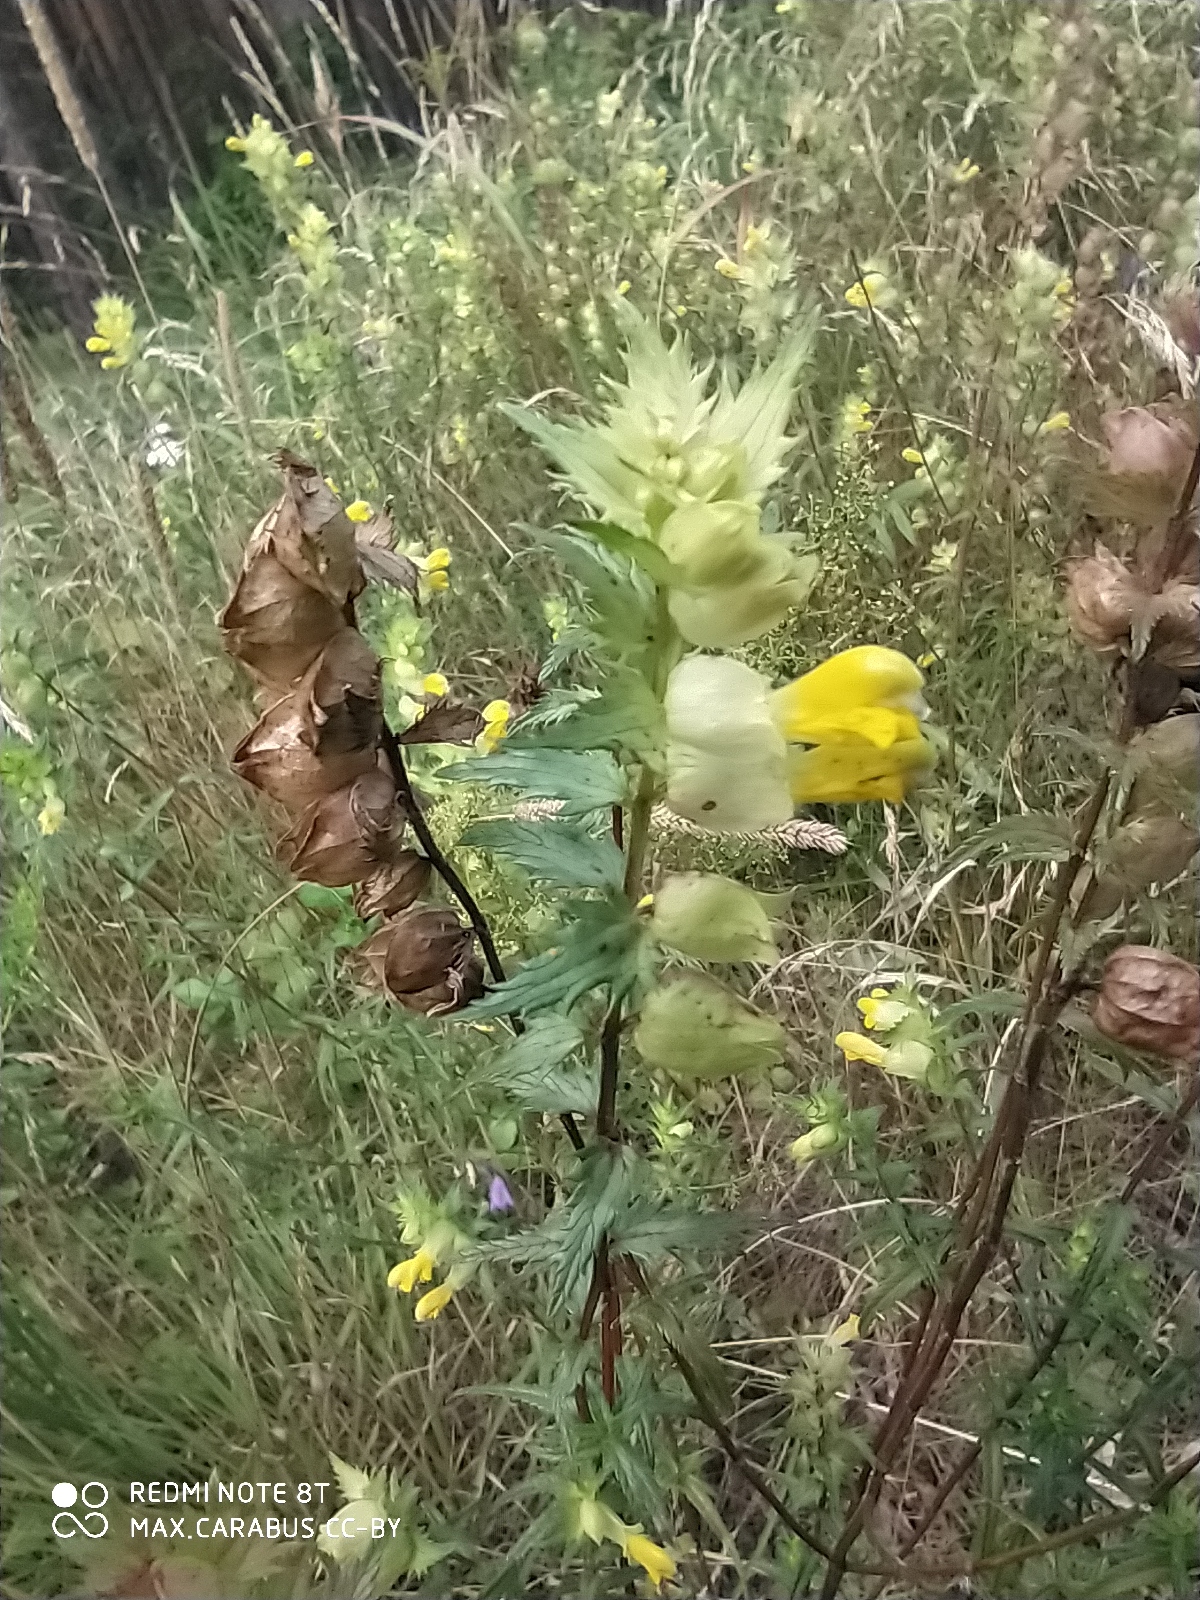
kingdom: Plantae
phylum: Tracheophyta
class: Magnoliopsida
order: Lamiales
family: Orobanchaceae
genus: Rhinanthus
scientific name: Rhinanthus serotinus
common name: Late-flowering yellow rattle
